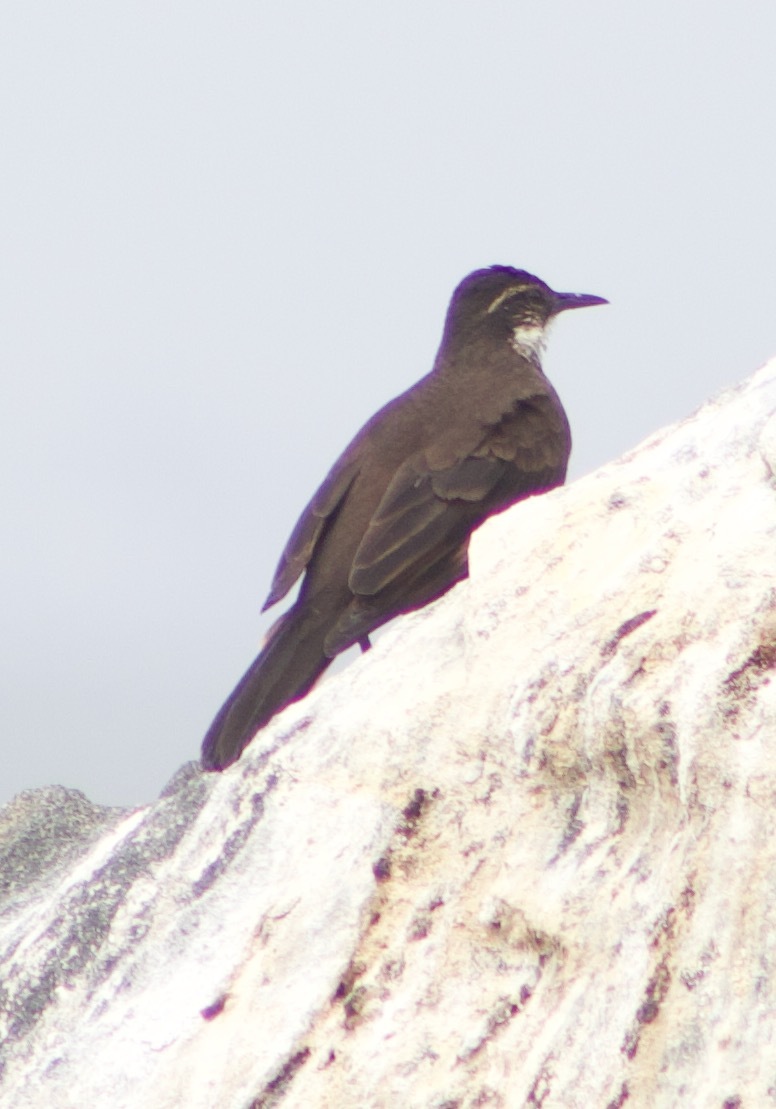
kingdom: Animalia
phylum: Chordata
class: Aves
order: Passeriformes
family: Furnariidae
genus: Cinclodes
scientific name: Cinclodes nigrofumosus
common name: Chilean seaside cinclodes
